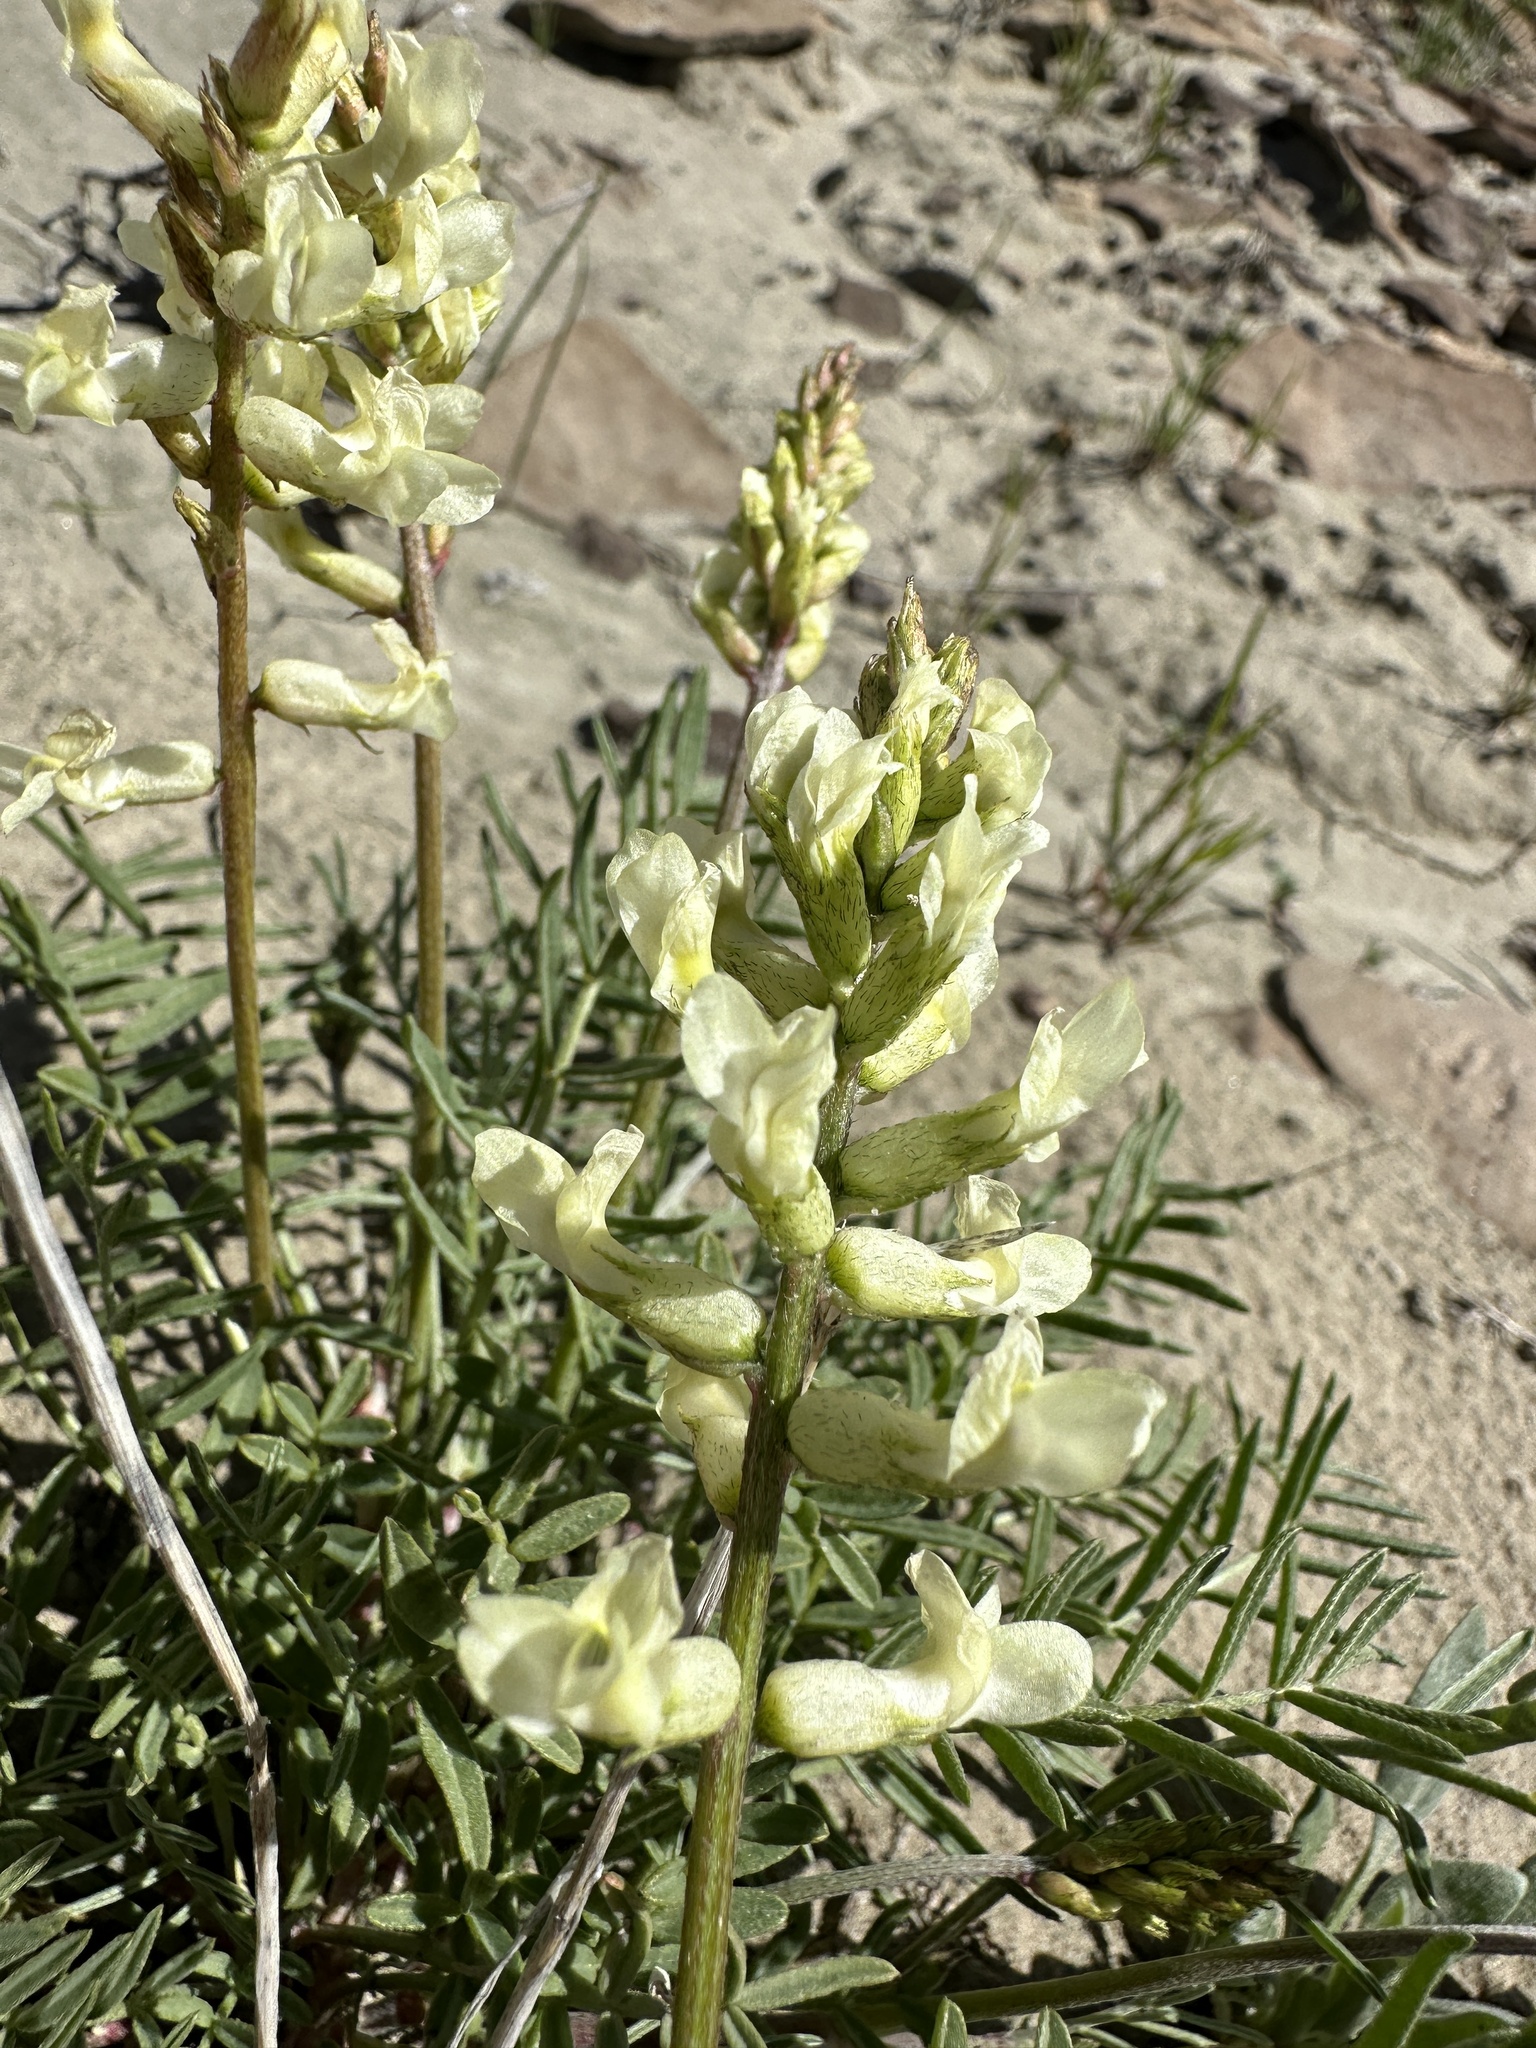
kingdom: Plantae
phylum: Tracheophyta
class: Magnoliopsida
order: Fabales
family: Fabaceae
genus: Astragalus
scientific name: Astragalus flavus
